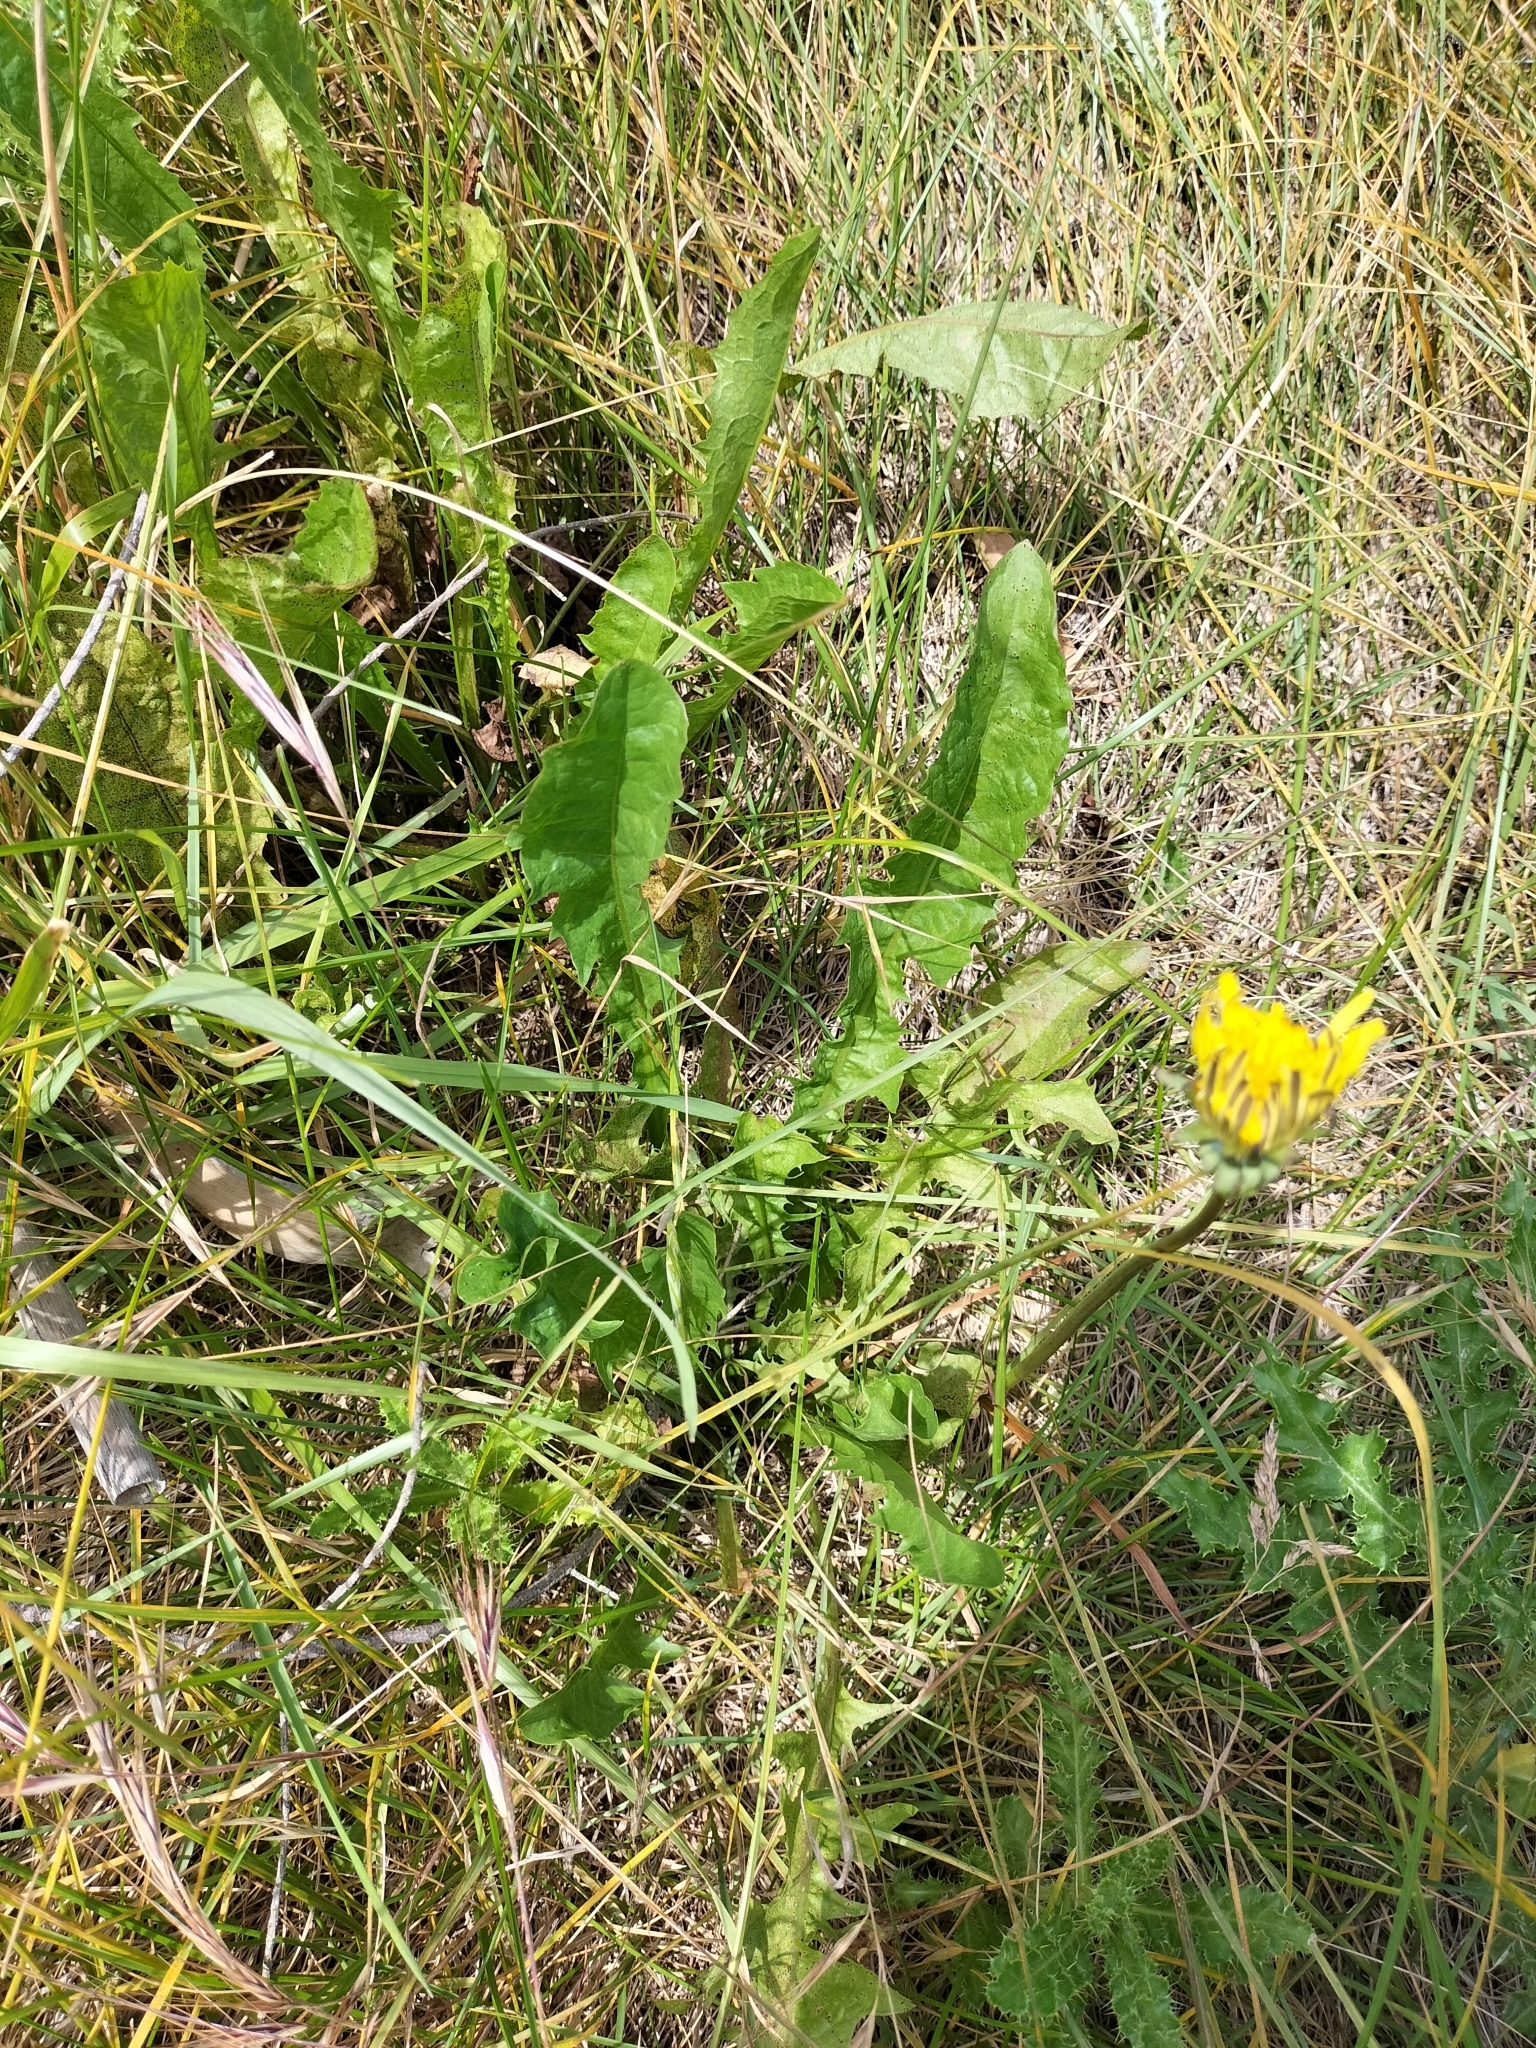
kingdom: Plantae
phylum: Tracheophyta
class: Magnoliopsida
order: Asterales
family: Asteraceae
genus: Taraxacum
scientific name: Taraxacum officinale
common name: Common dandelion
